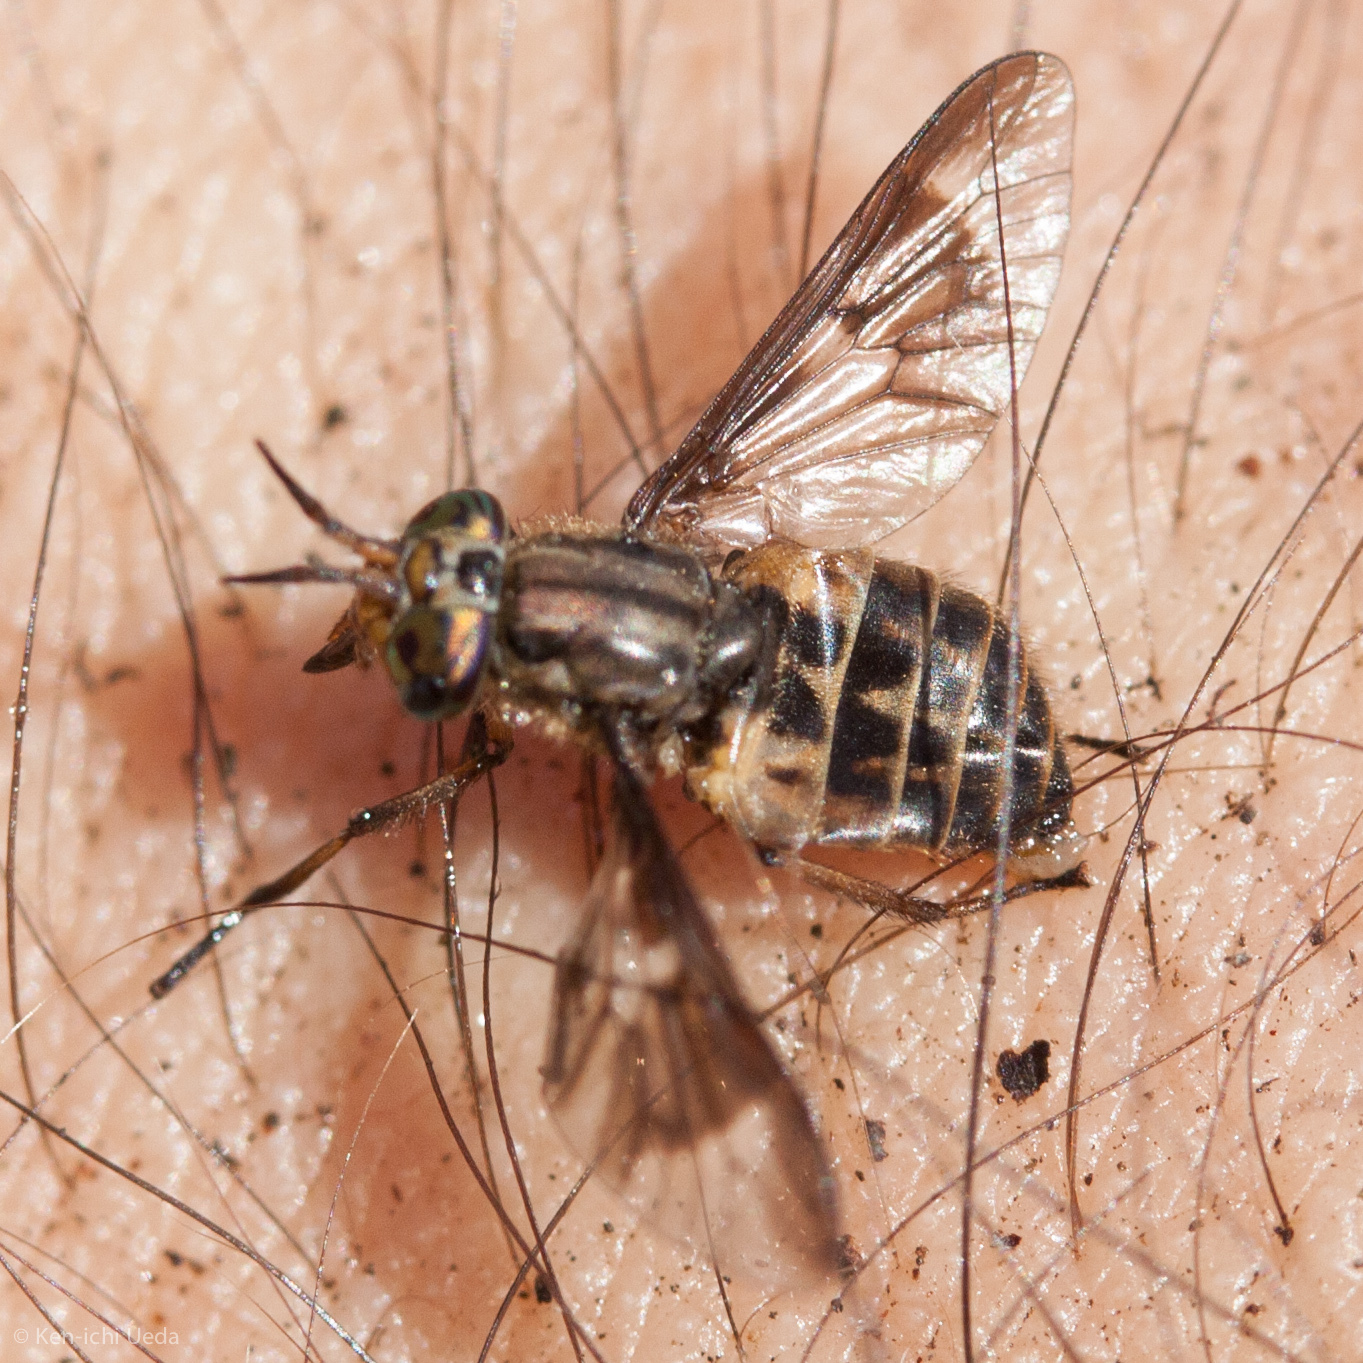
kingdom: Animalia
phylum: Arthropoda
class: Insecta
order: Diptera
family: Tabanidae
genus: Chrysops
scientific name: Chrysops coloradensis
